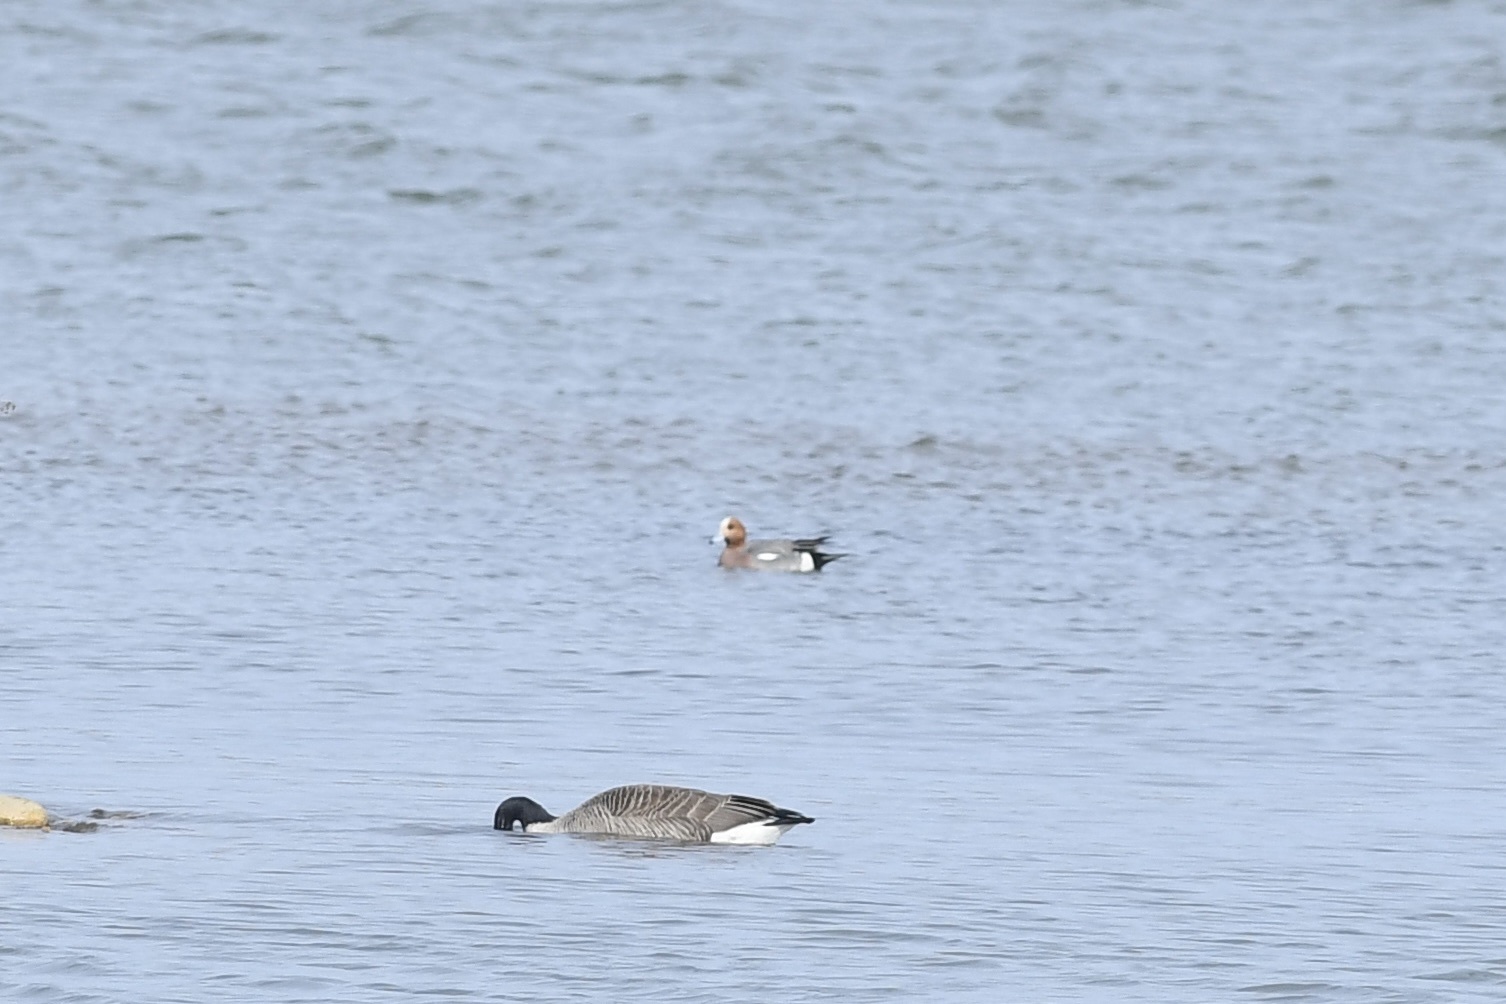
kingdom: Animalia
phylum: Chordata
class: Aves
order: Anseriformes
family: Anatidae
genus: Mareca
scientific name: Mareca penelope
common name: Eurasian wigeon
